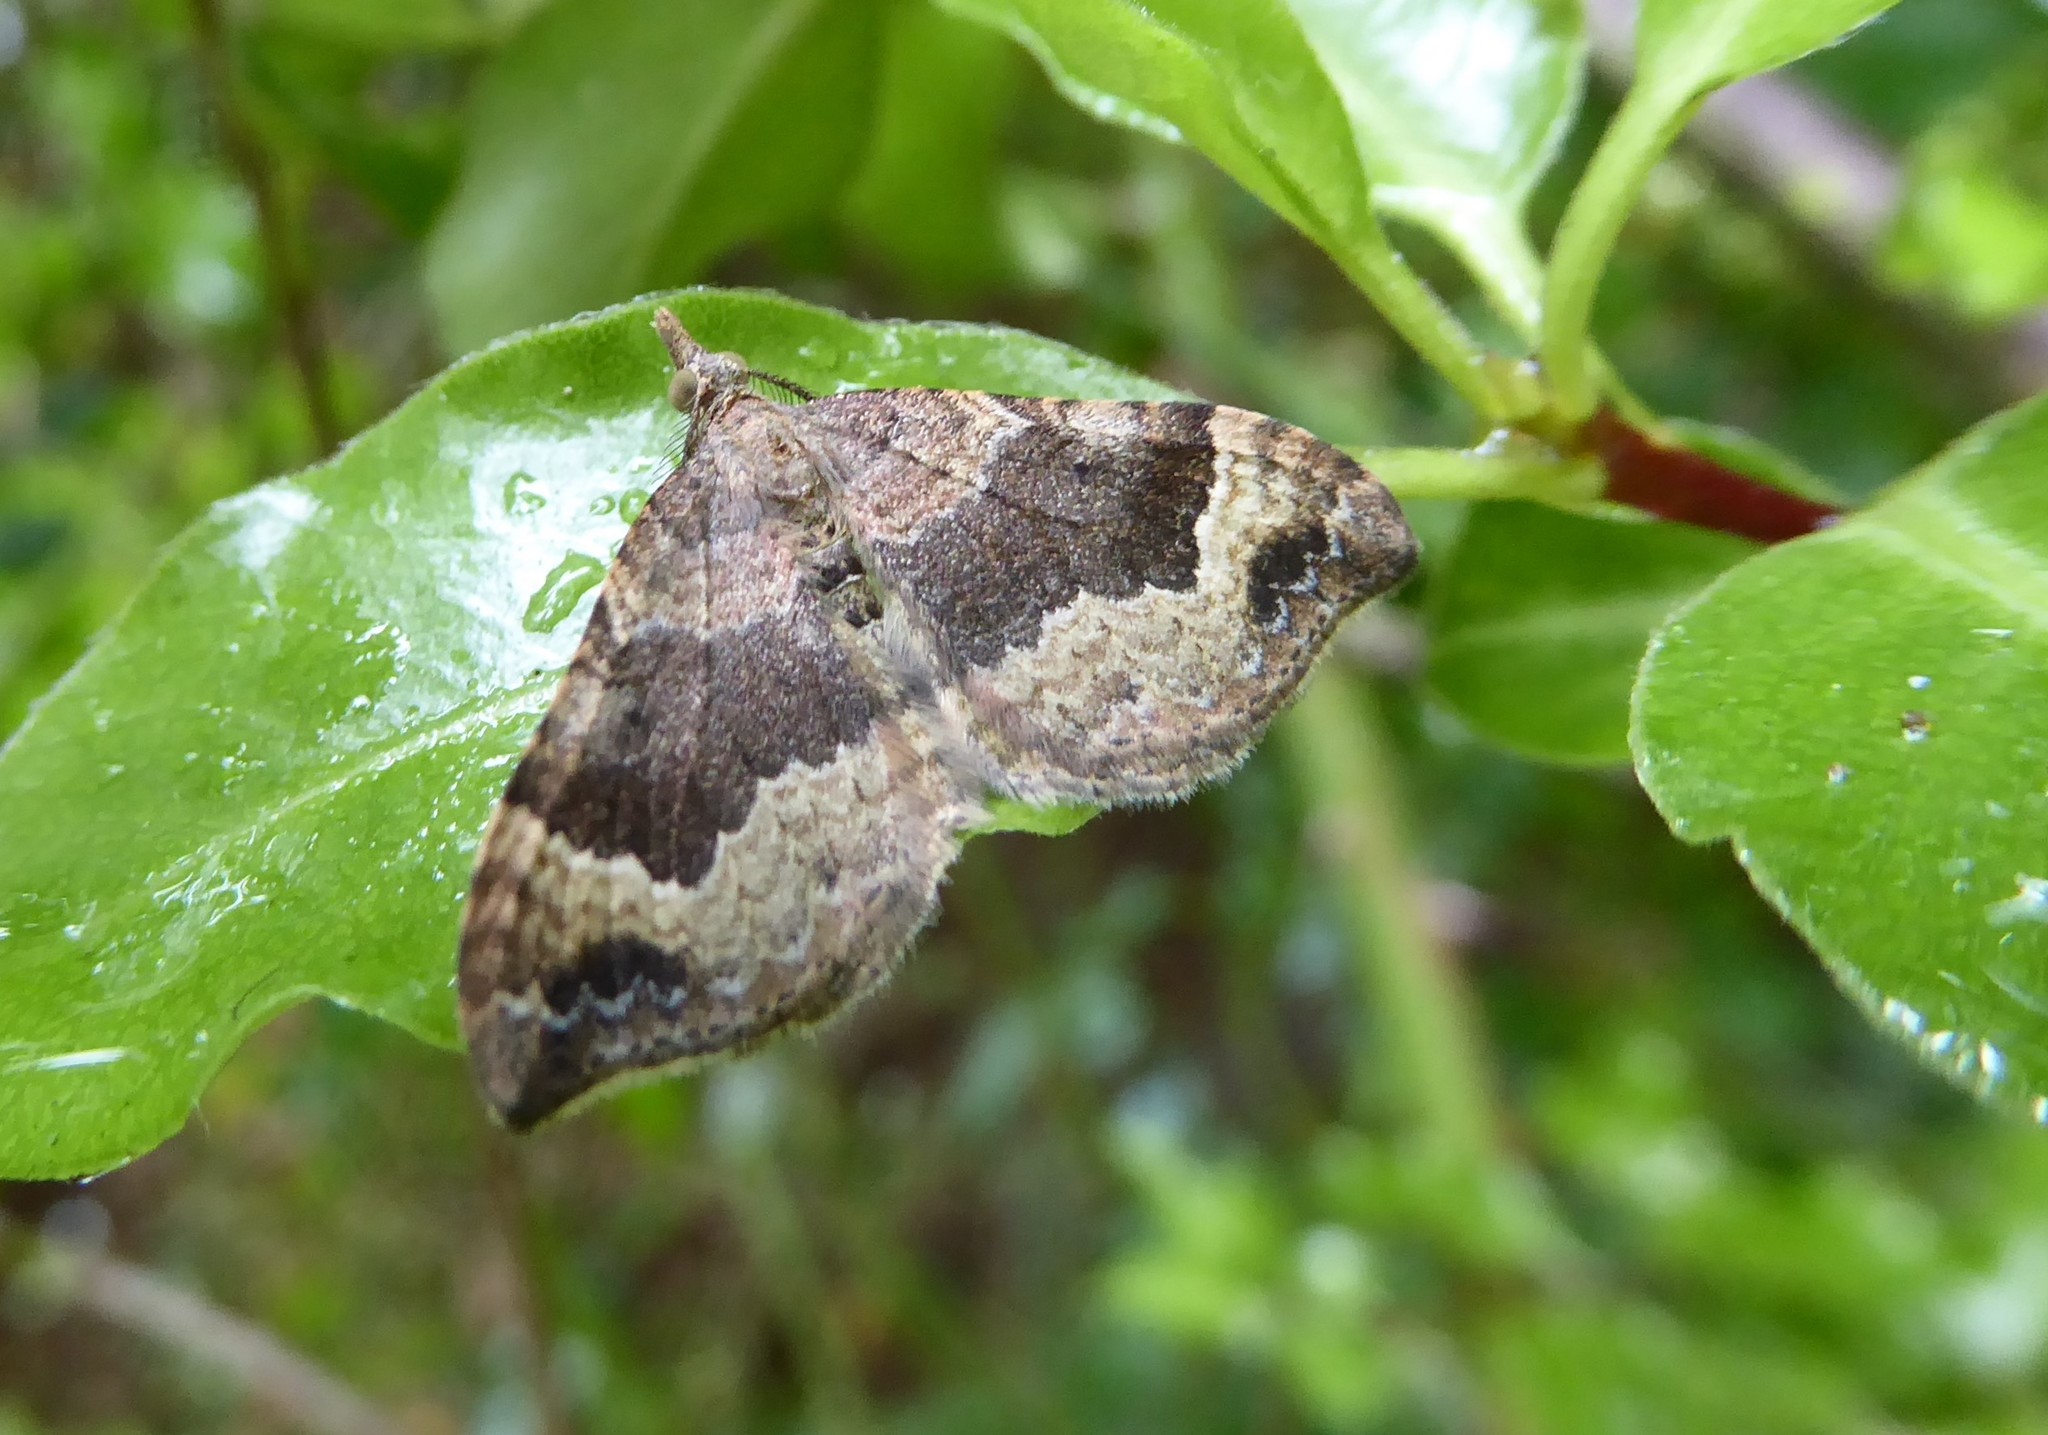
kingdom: Animalia
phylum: Arthropoda
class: Insecta
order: Lepidoptera
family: Geometridae
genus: Homodotis
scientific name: Homodotis megaspilata
